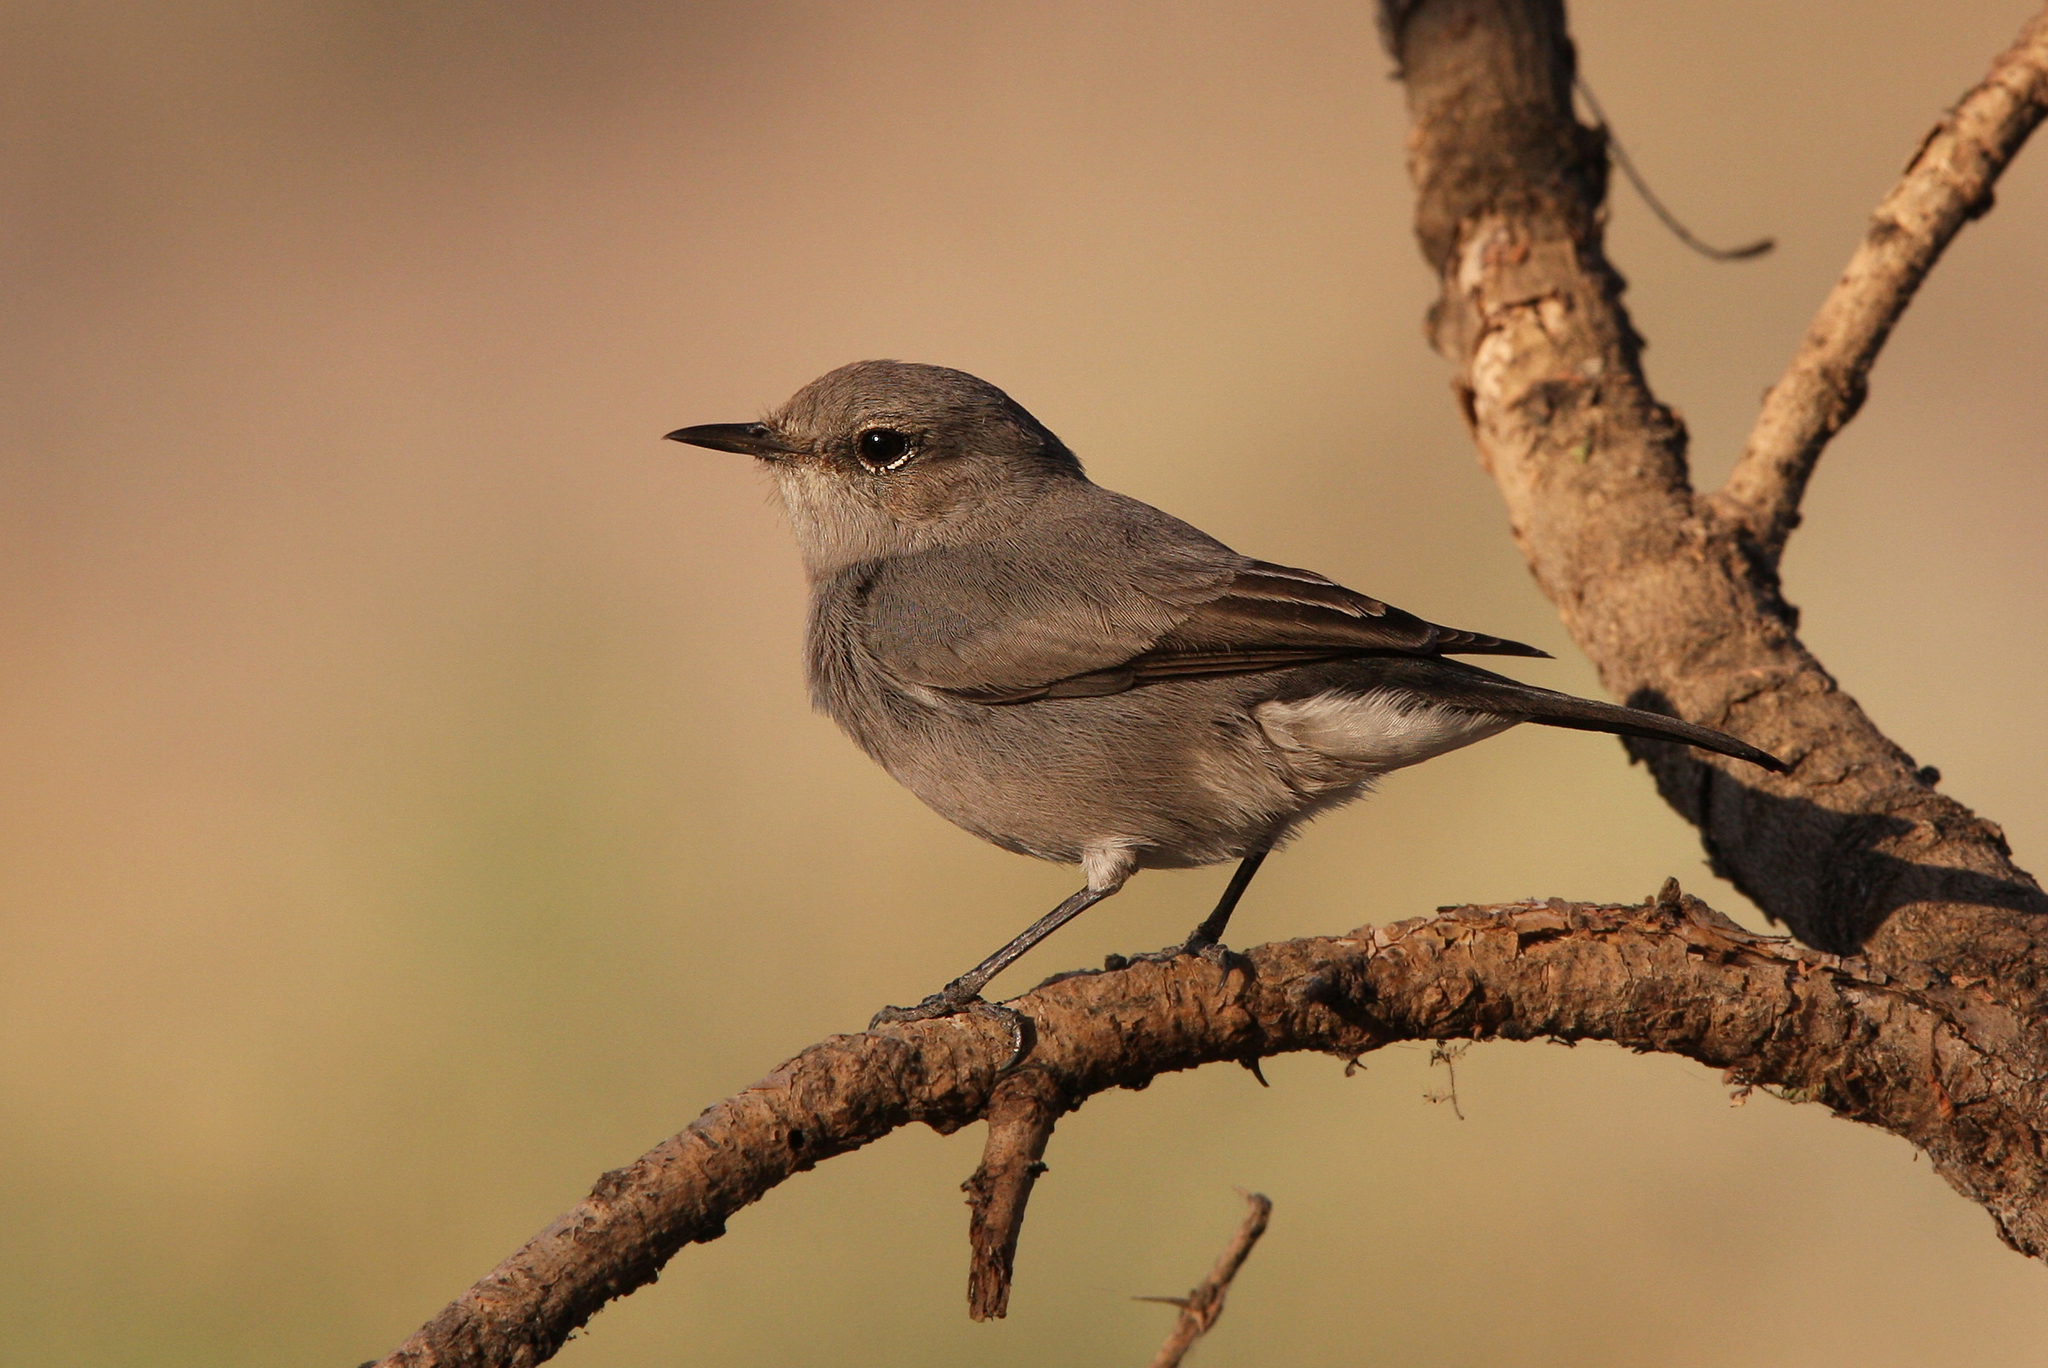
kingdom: Animalia
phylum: Chordata
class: Aves
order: Passeriformes
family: Muscicapidae
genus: Oenanthe
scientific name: Oenanthe melanura
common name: Blackstart
